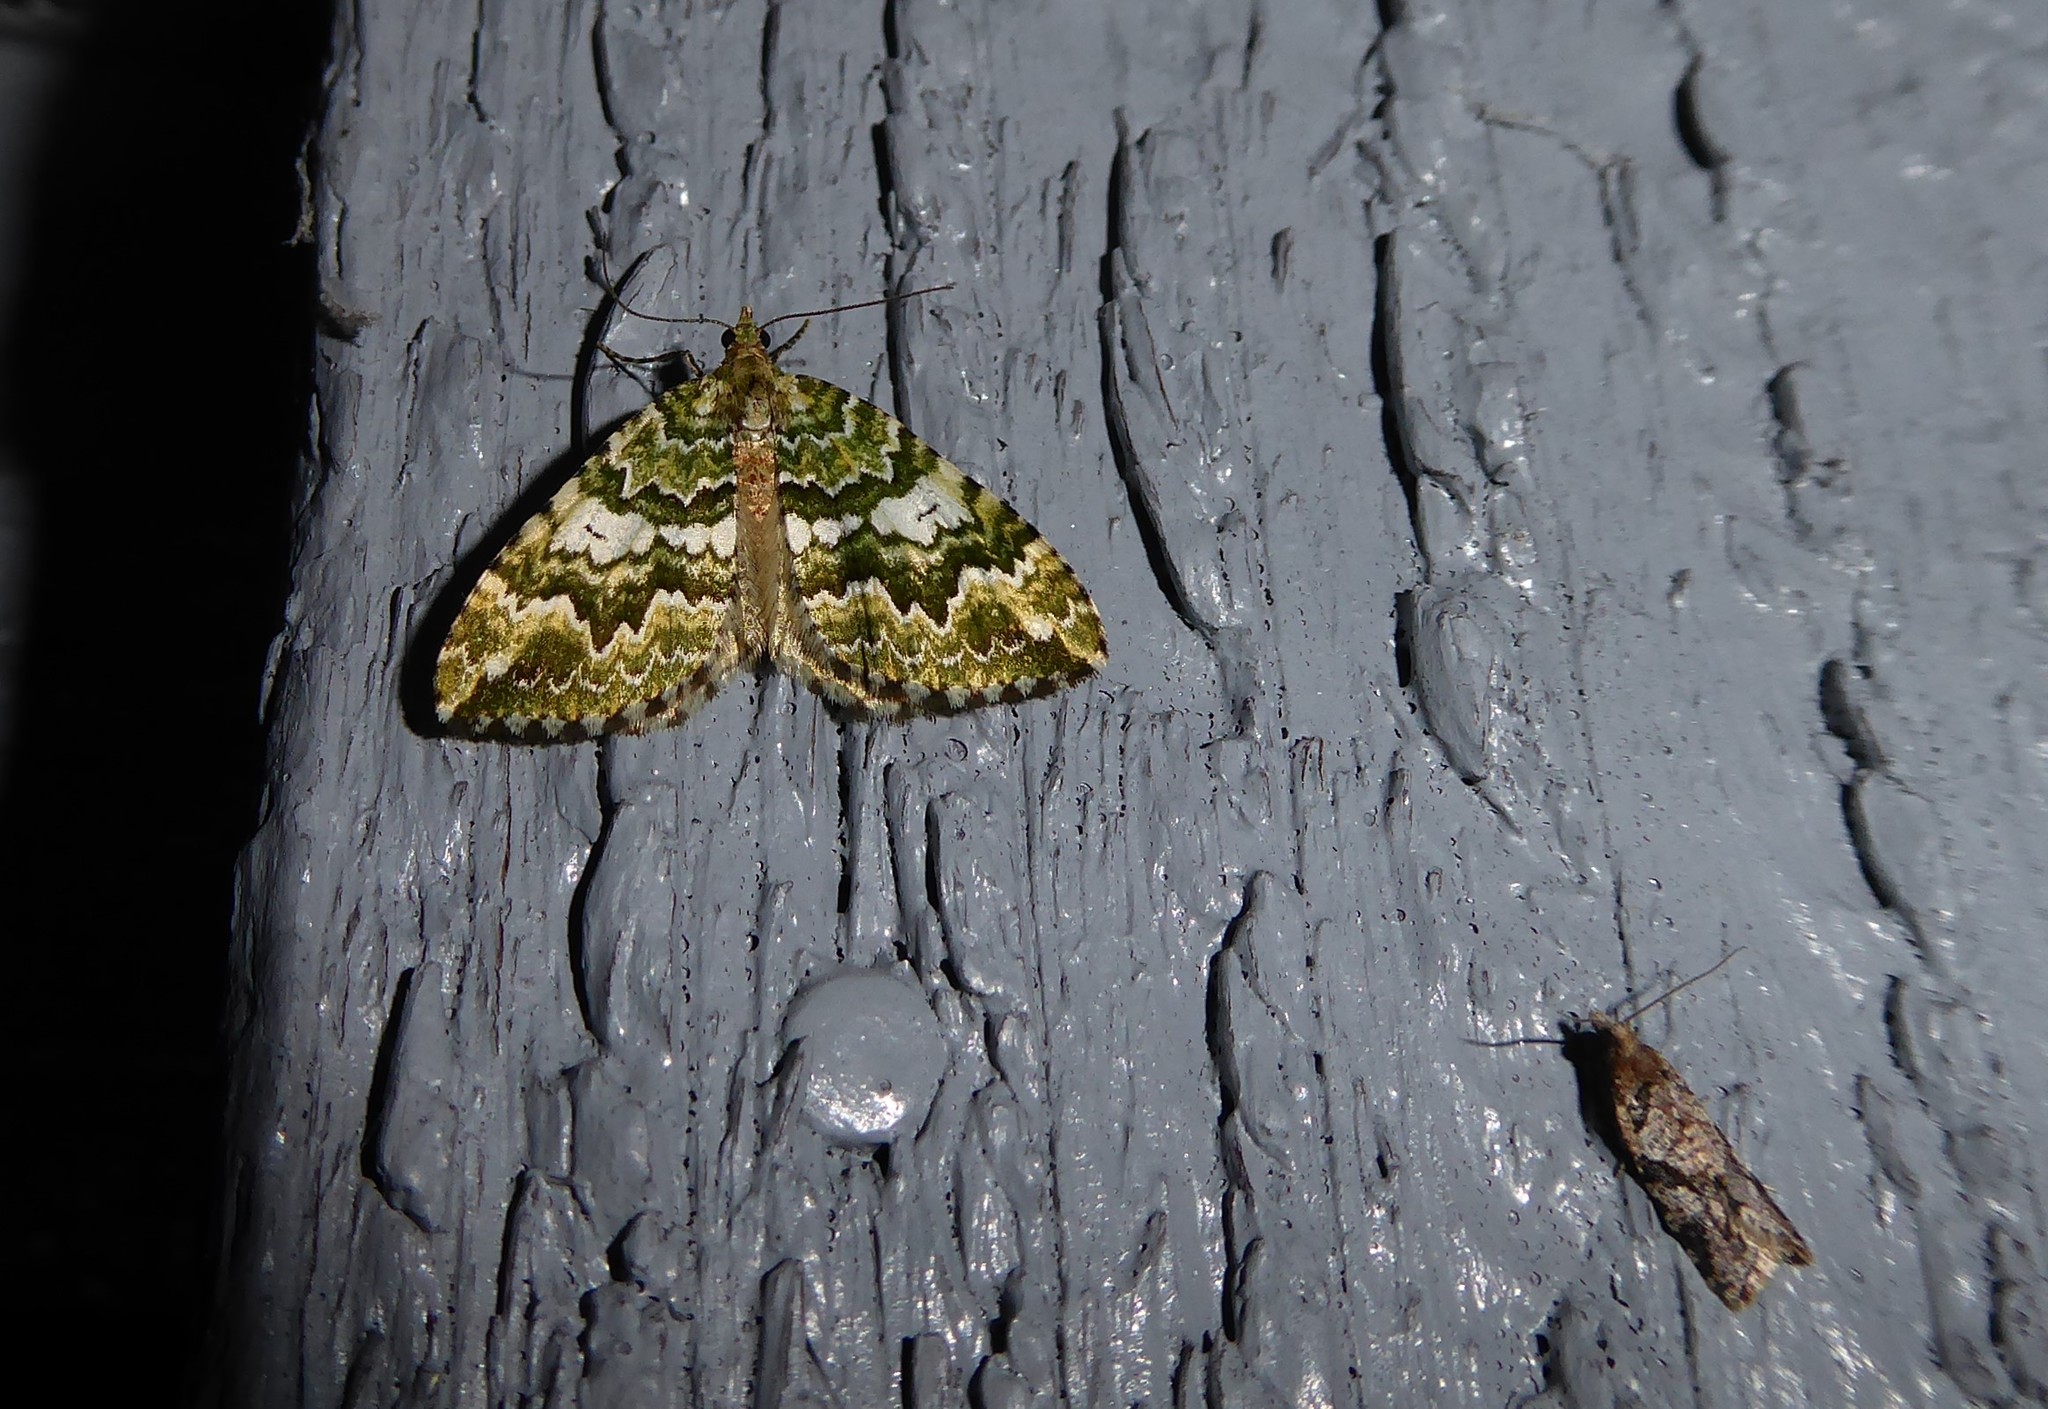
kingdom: Animalia
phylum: Arthropoda
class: Insecta
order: Lepidoptera
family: Geometridae
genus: Asaphodes
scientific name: Asaphodes beata
